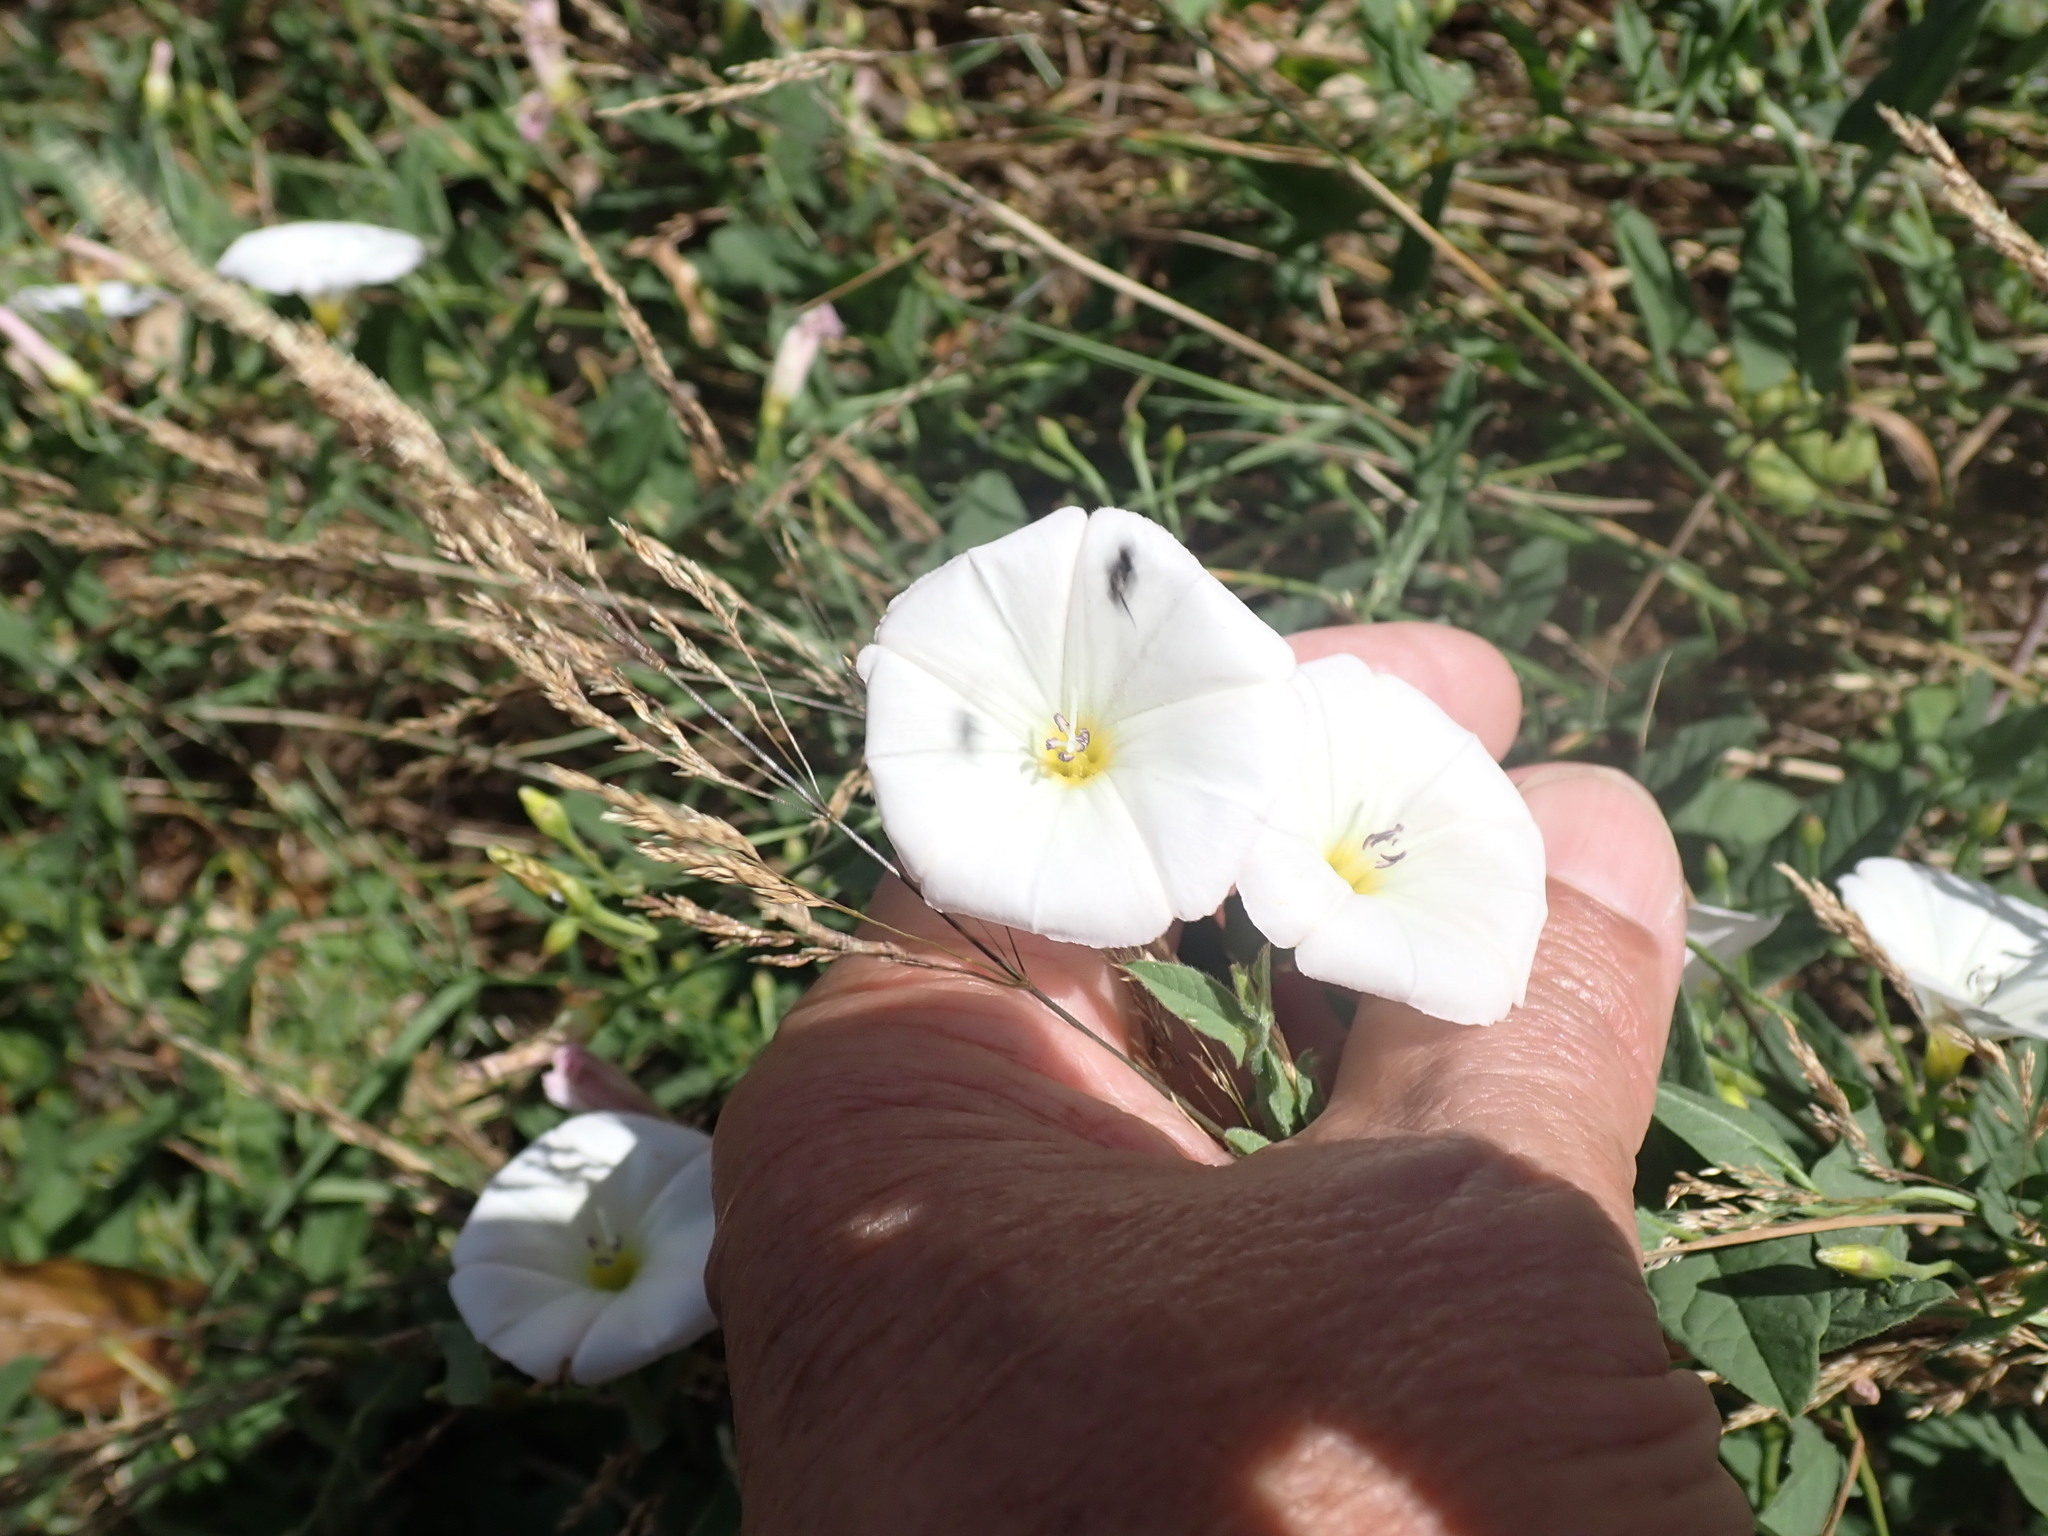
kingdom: Plantae
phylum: Tracheophyta
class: Magnoliopsida
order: Solanales
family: Convolvulaceae
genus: Convolvulus
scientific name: Convolvulus arvensis
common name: Field bindweed
